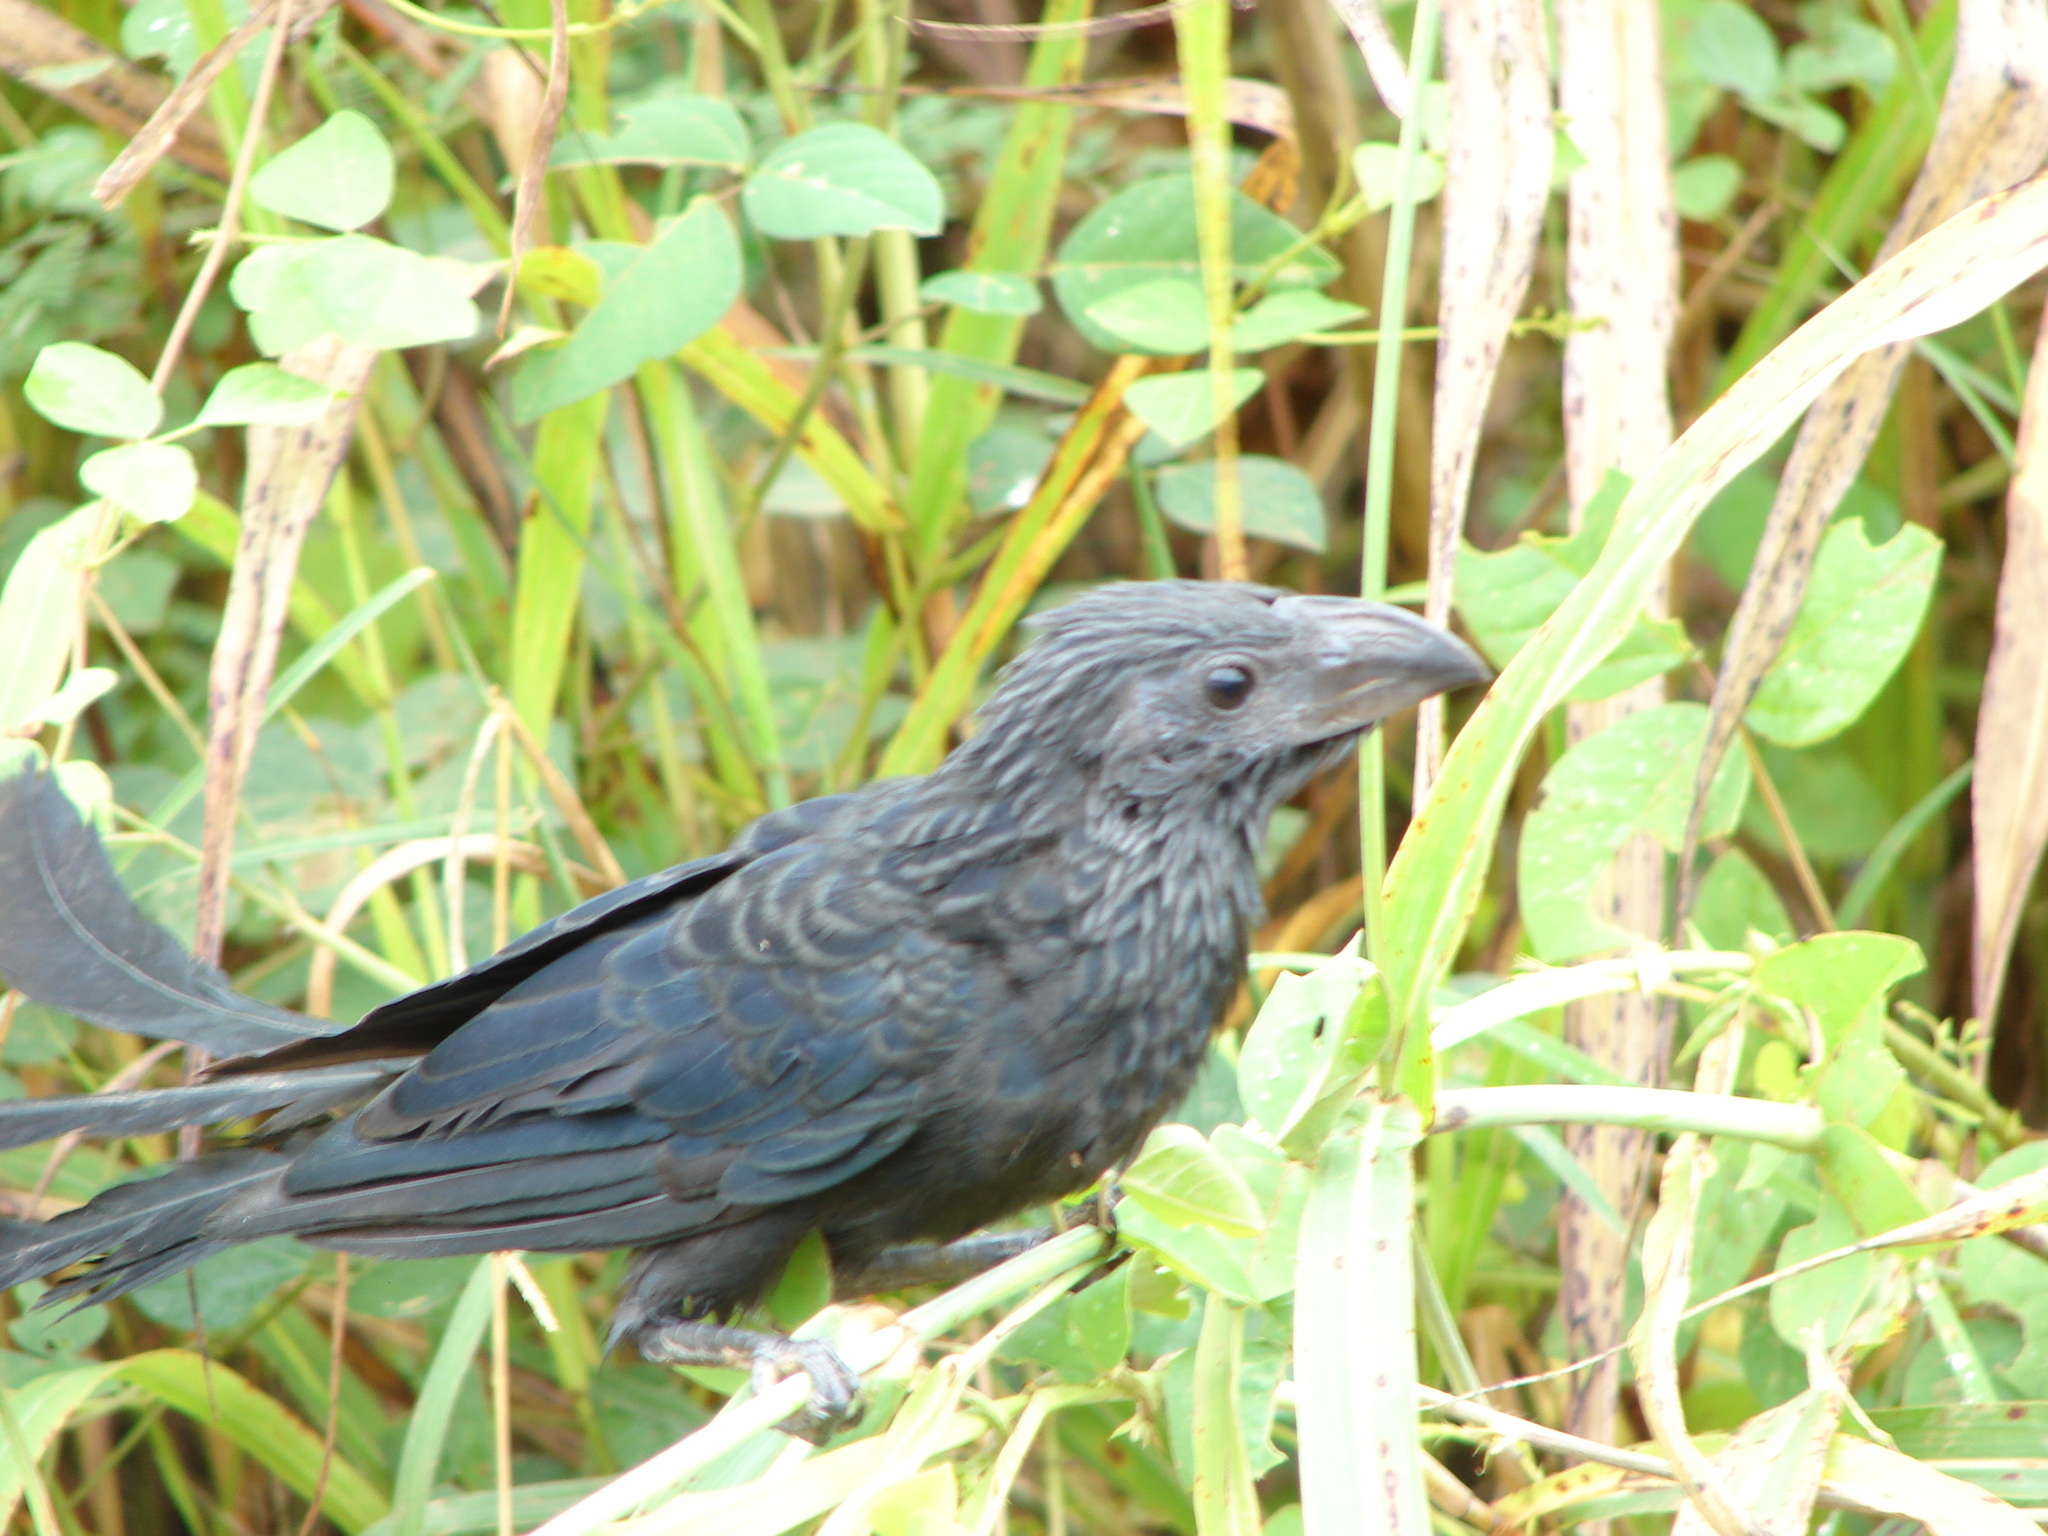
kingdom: Animalia
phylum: Chordata
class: Aves
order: Cuculiformes
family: Cuculidae
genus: Crotophaga
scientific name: Crotophaga sulcirostris
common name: Groove-billed ani
